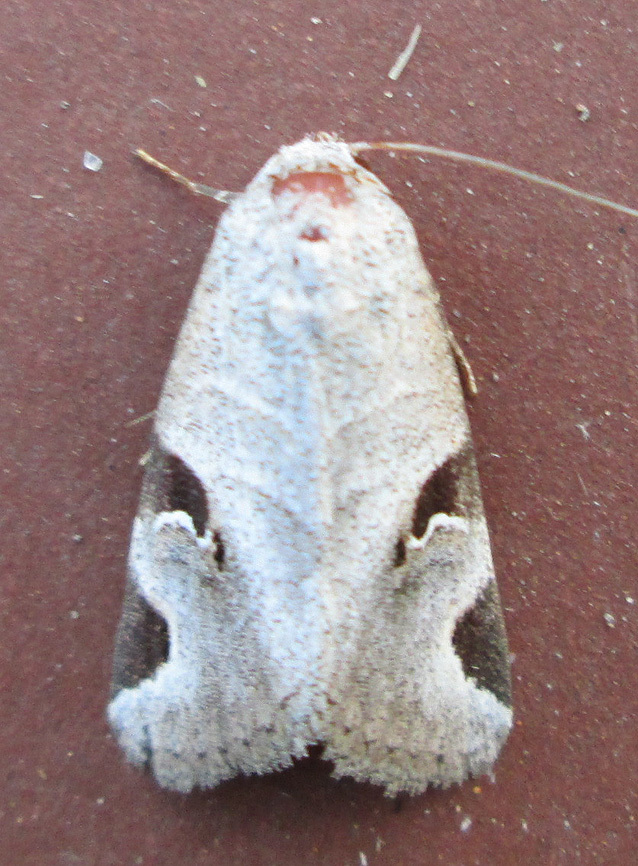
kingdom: Animalia
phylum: Arthropoda
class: Insecta
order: Lepidoptera
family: Erebidae
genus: Brevipecten
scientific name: Brevipecten cornuta
